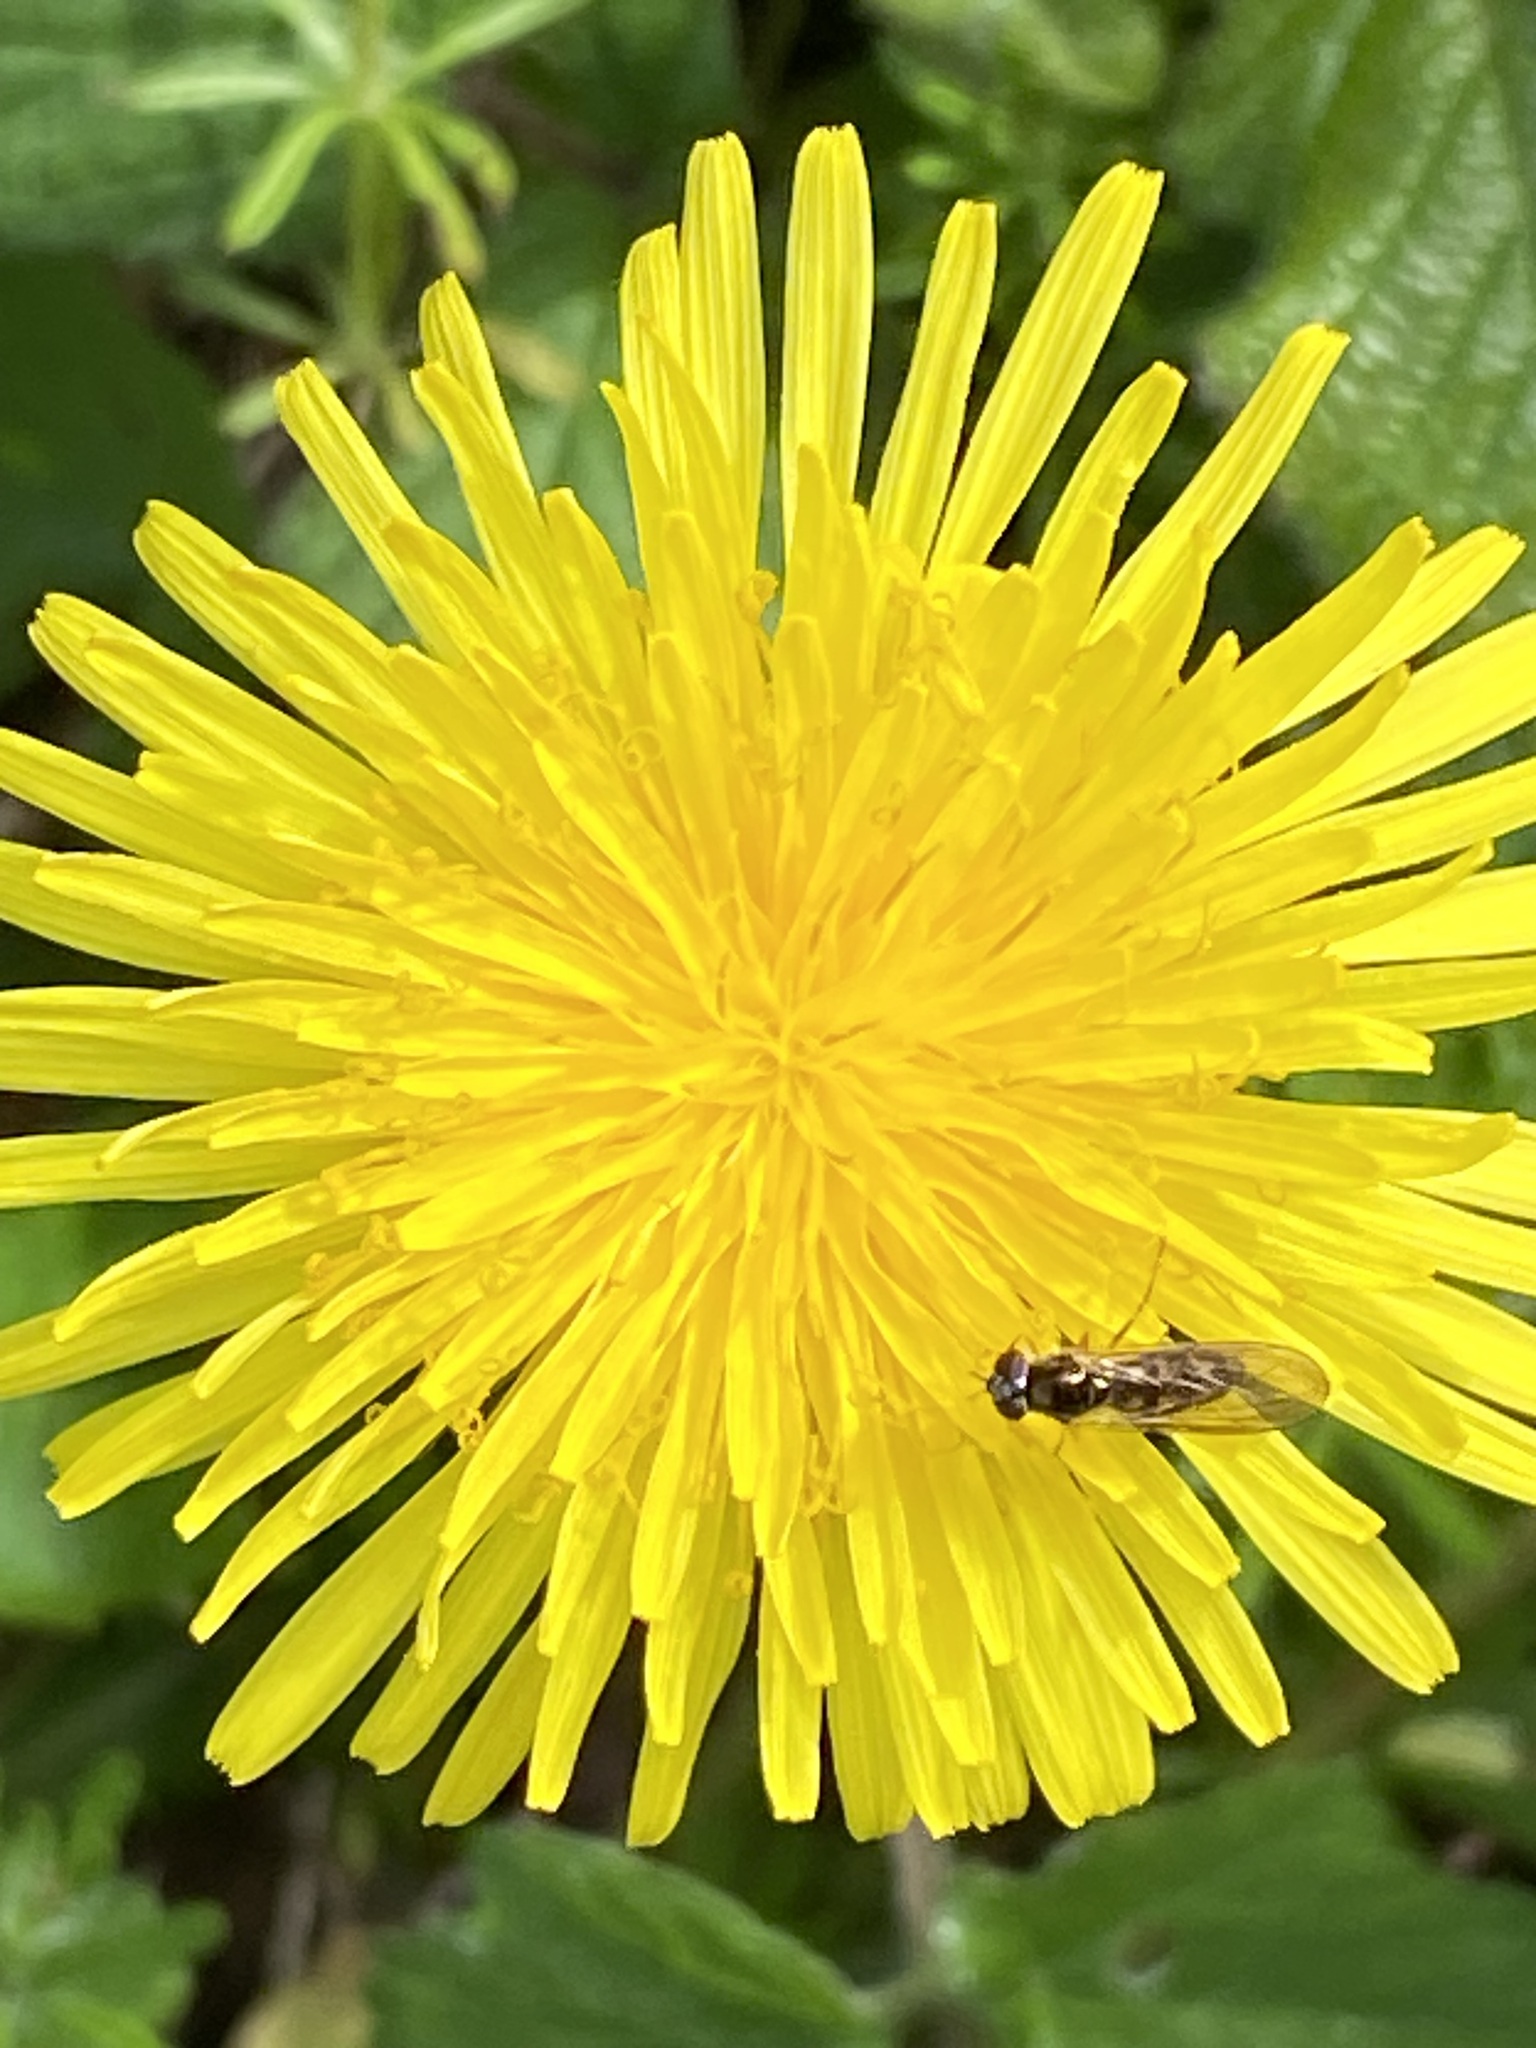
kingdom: Animalia
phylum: Arthropoda
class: Insecta
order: Diptera
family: Syrphidae
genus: Melanostoma
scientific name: Melanostoma
